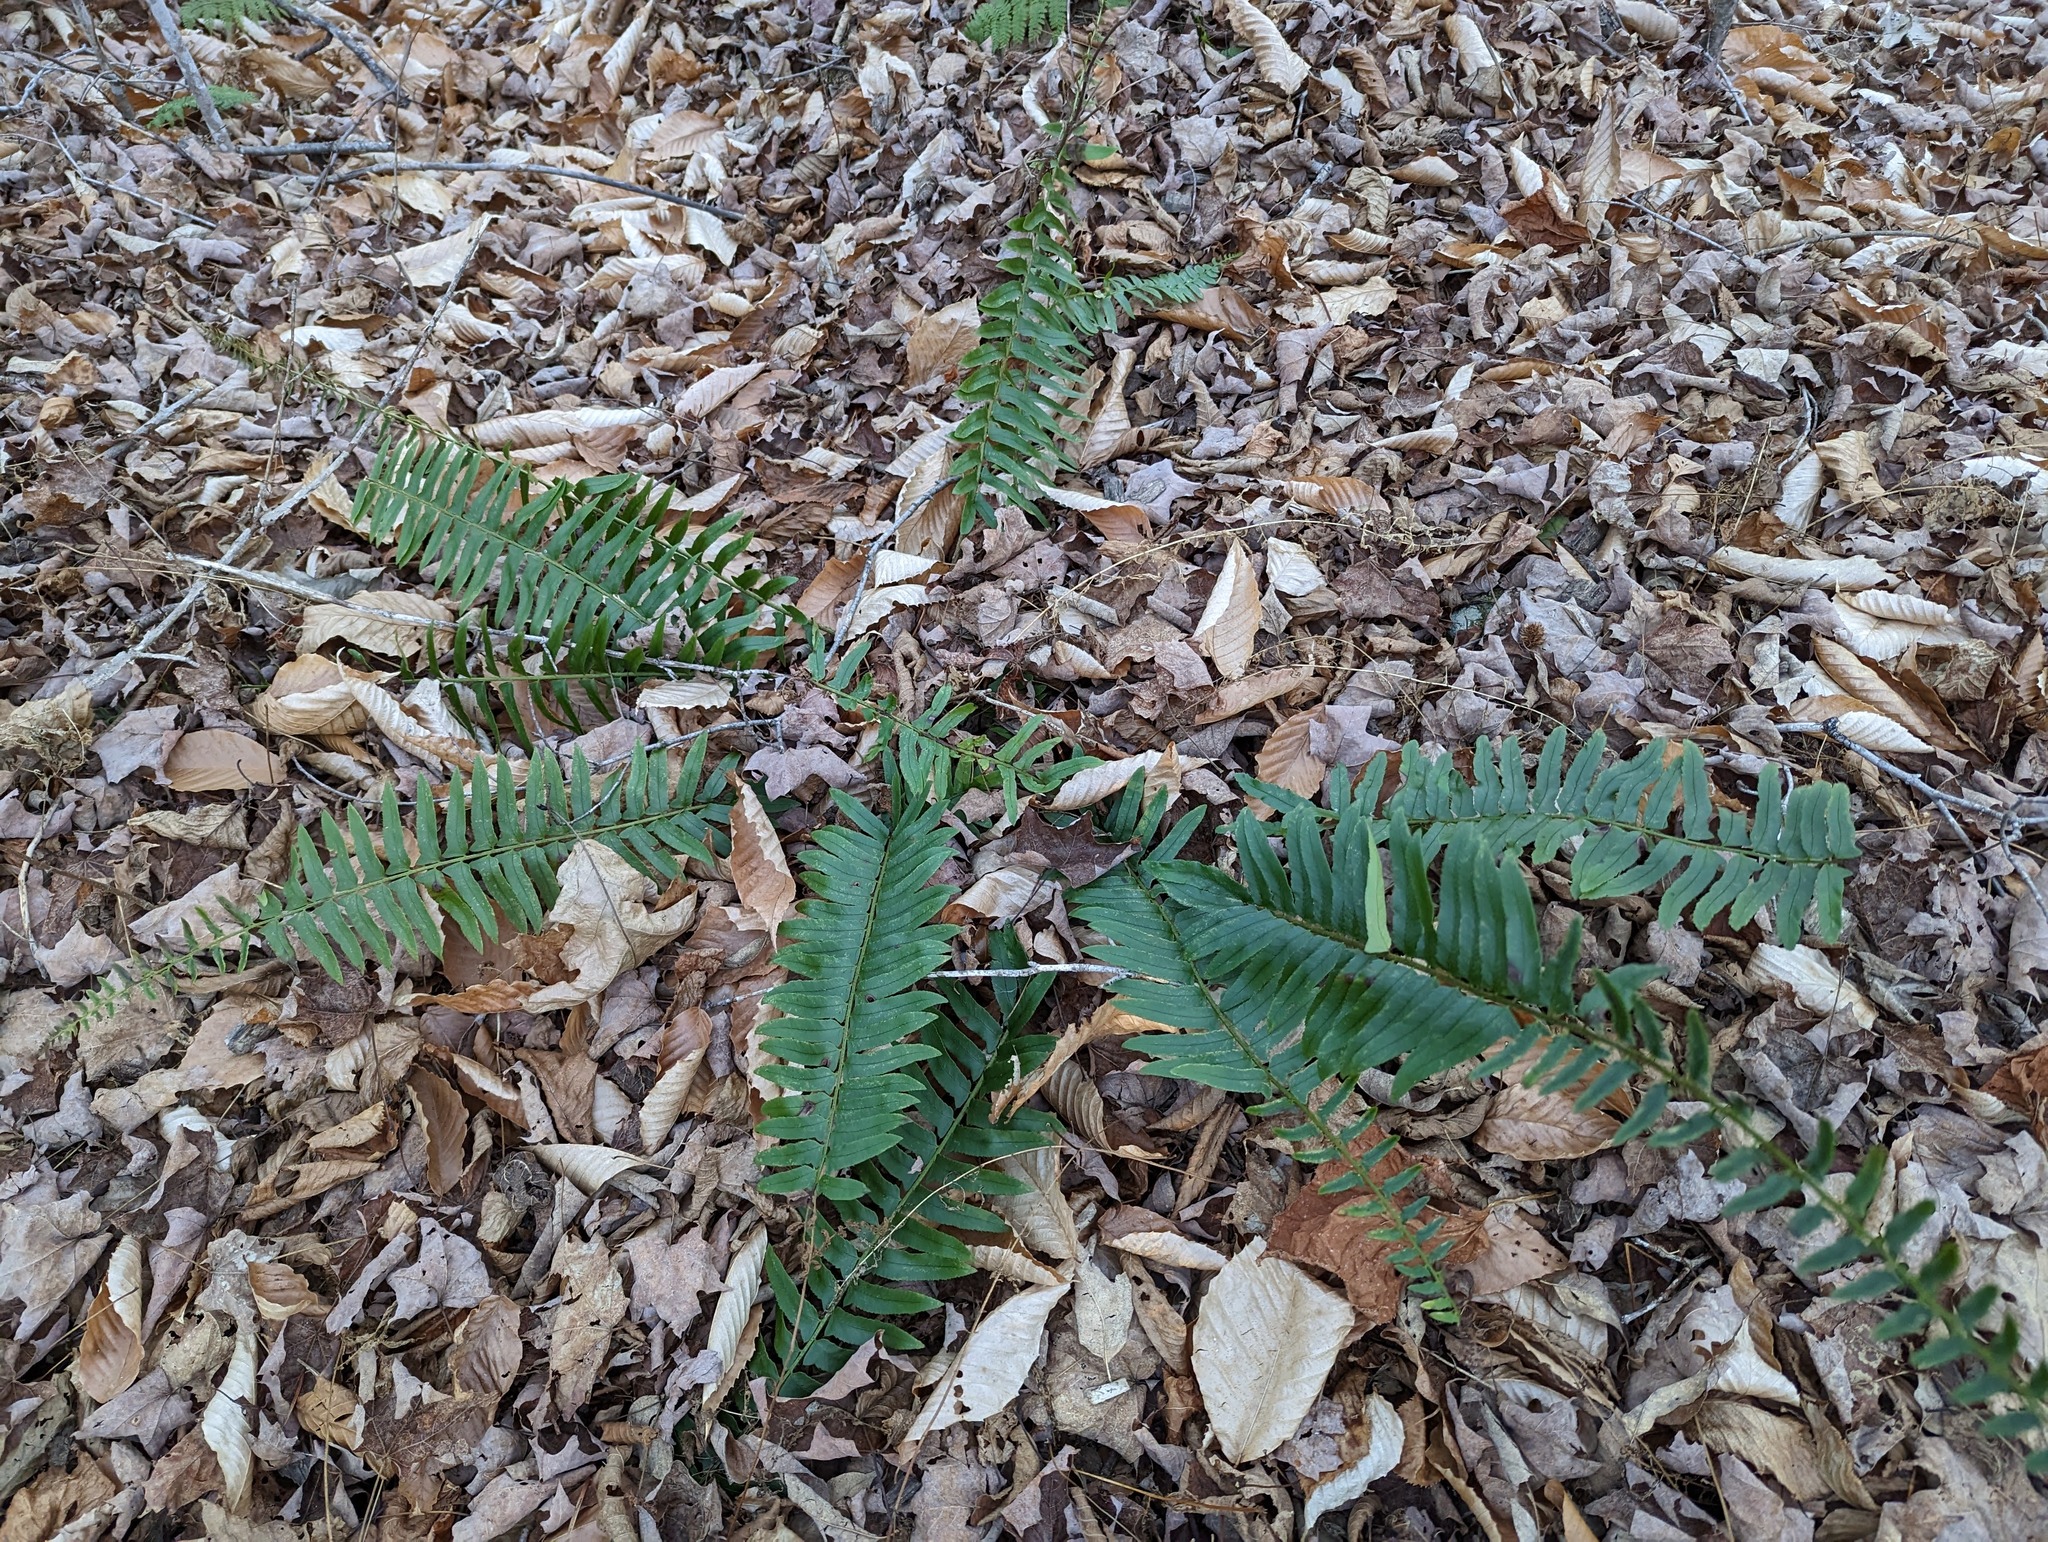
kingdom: Plantae
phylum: Tracheophyta
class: Polypodiopsida
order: Polypodiales
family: Dryopteridaceae
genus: Polystichum
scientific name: Polystichum acrostichoides
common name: Christmas fern
